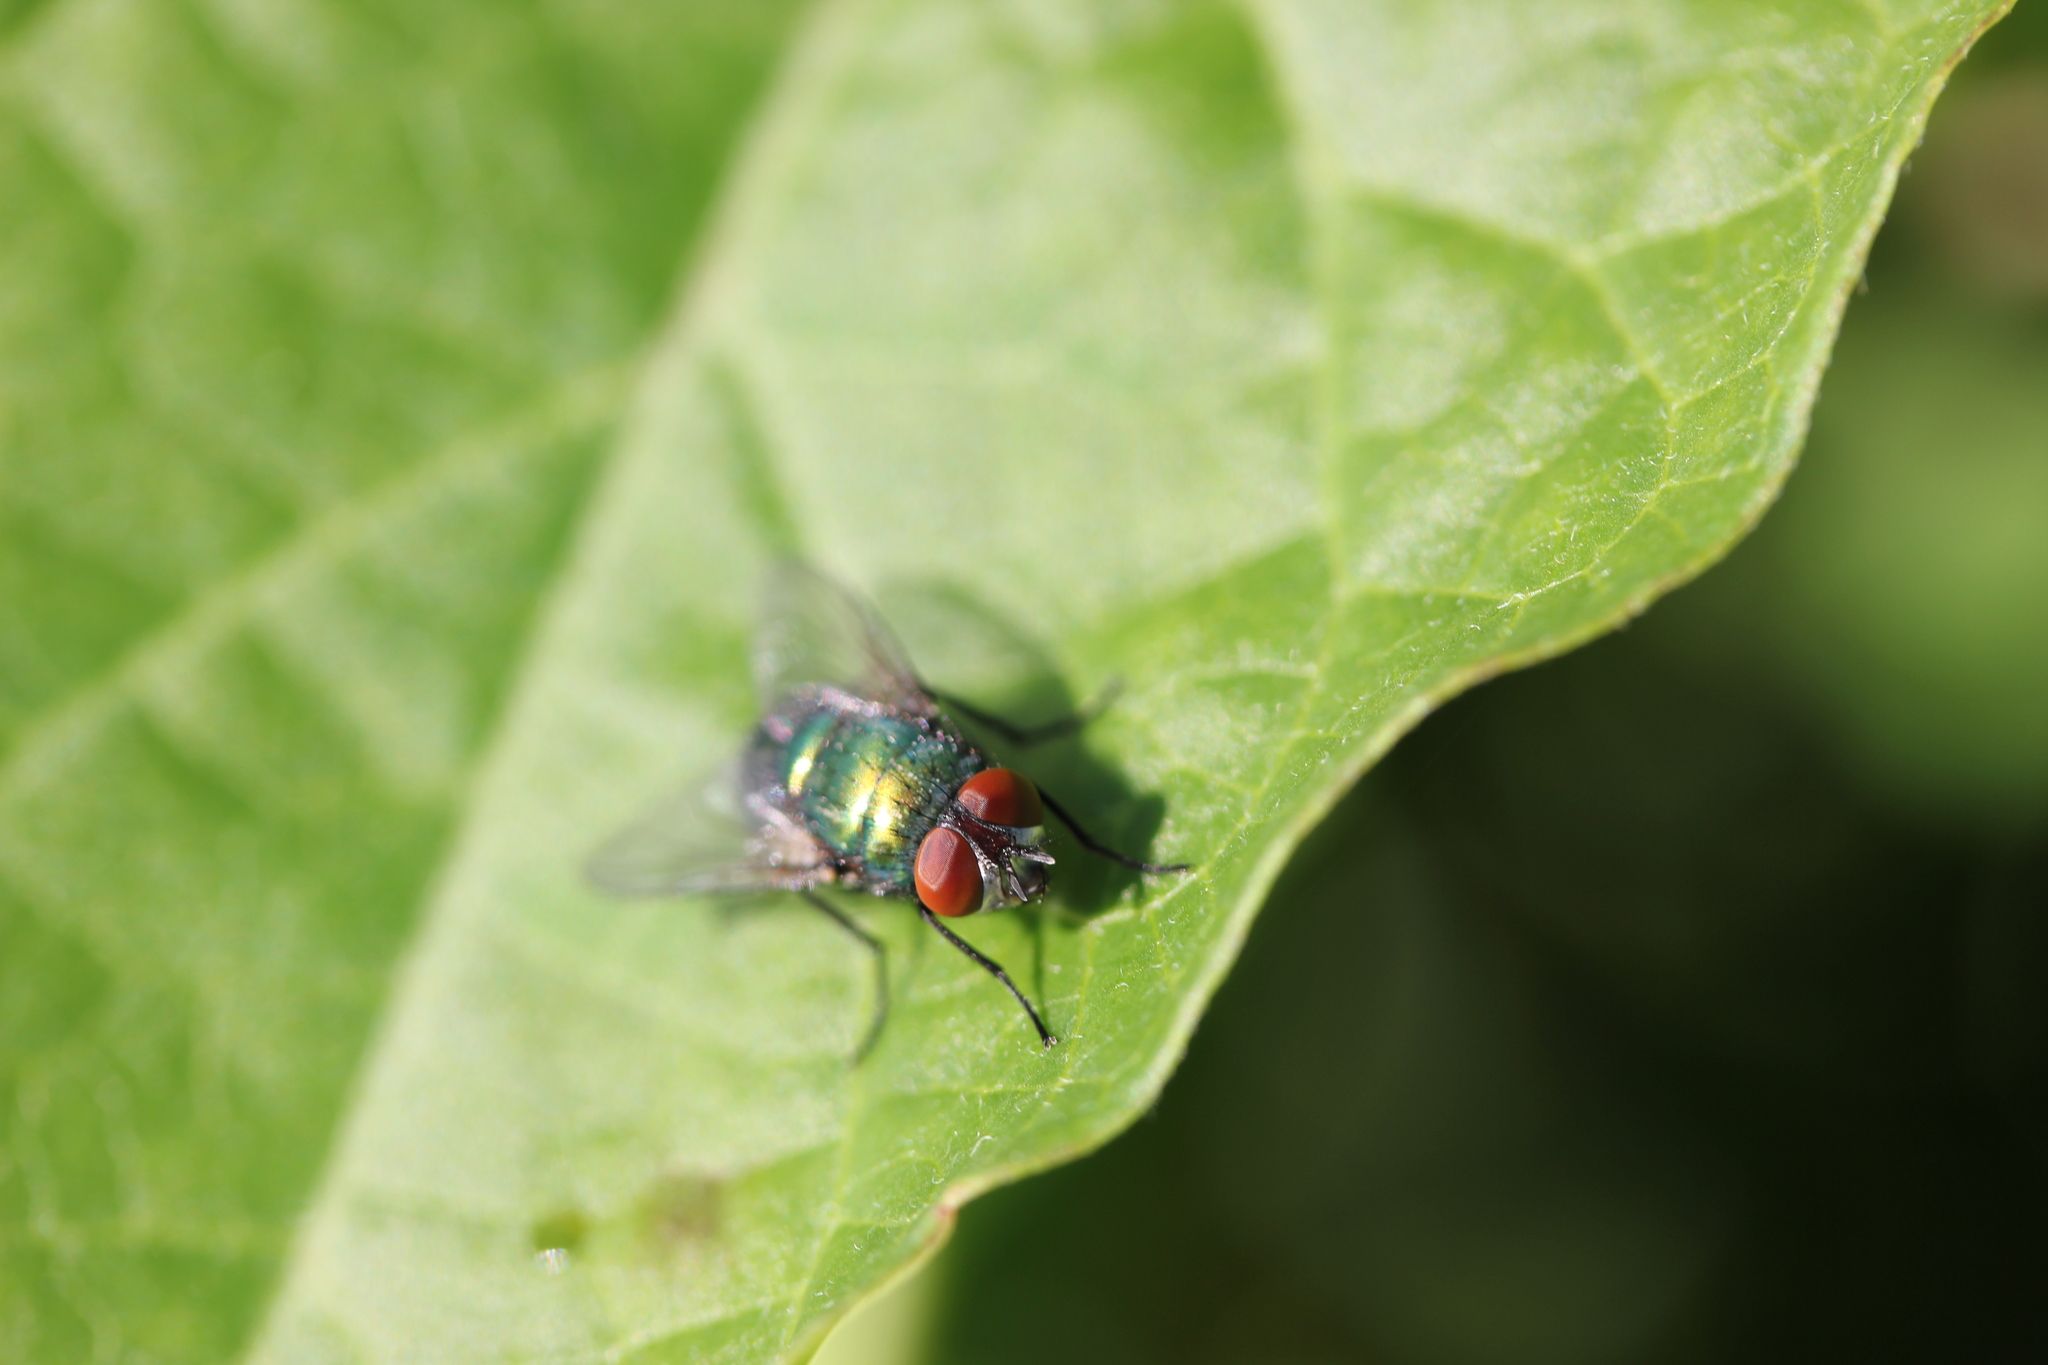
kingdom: Animalia
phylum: Arthropoda
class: Insecta
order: Diptera
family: Calliphoridae
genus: Lucilia
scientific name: Lucilia sericata
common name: Blow fly
